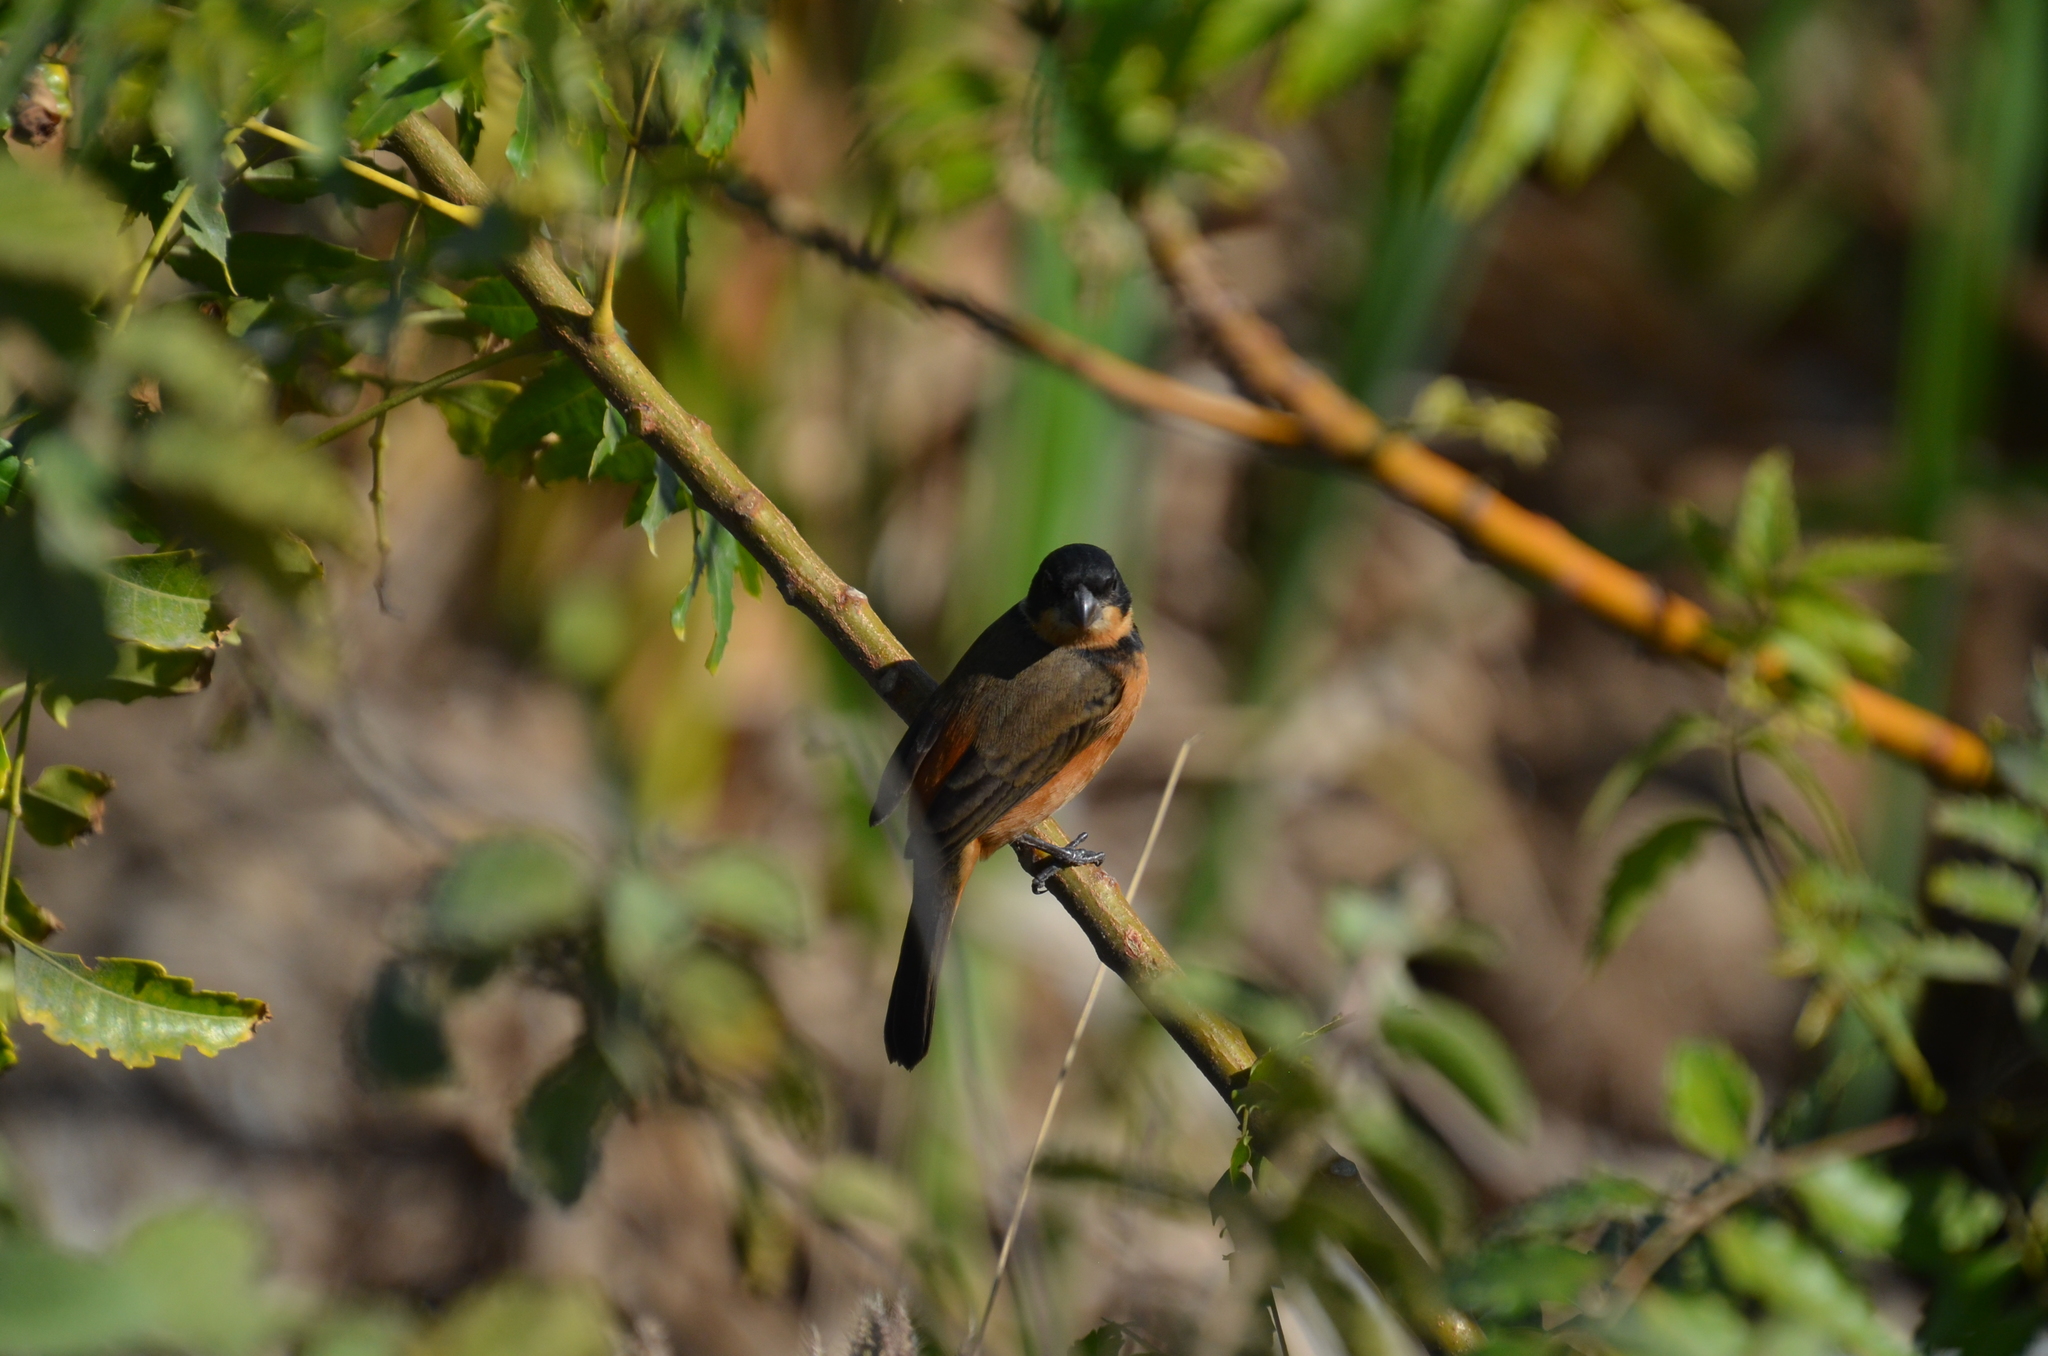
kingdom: Animalia
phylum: Chordata
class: Aves
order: Passeriformes
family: Thraupidae
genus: Sporophila
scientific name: Sporophila torqueola
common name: White-collared seedeater
